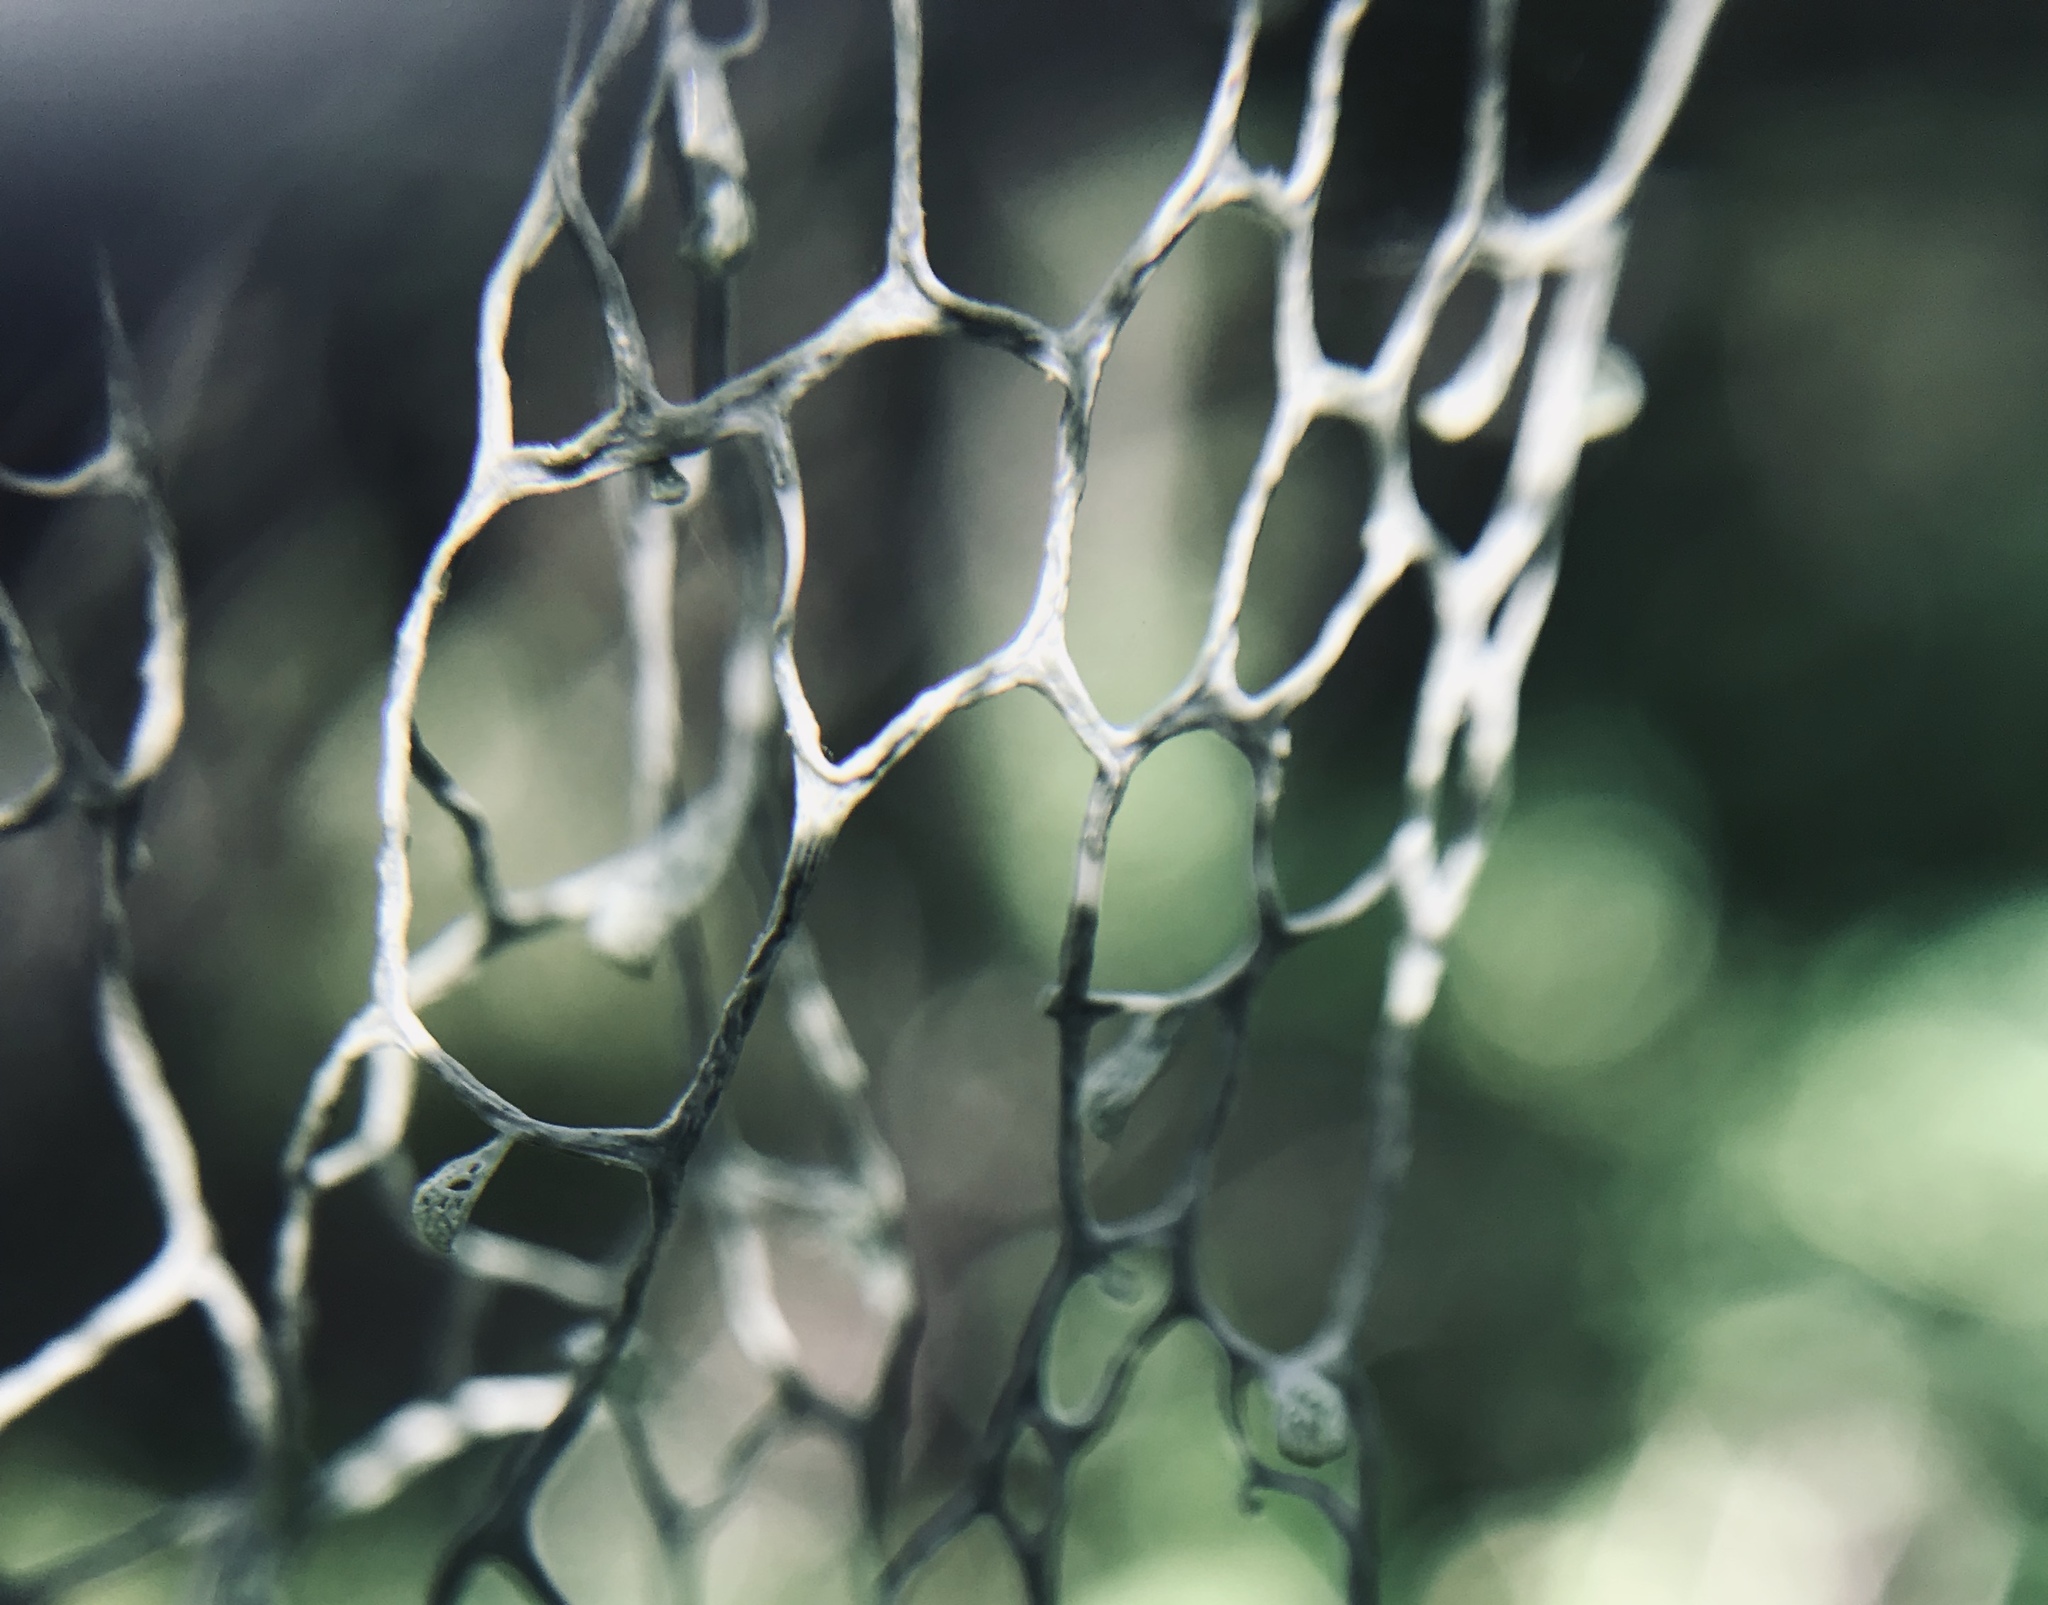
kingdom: Fungi
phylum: Ascomycota
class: Lecanoromycetes
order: Lecanorales
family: Ramalinaceae
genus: Ramalina
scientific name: Ramalina menziesii
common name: Lace lichen
